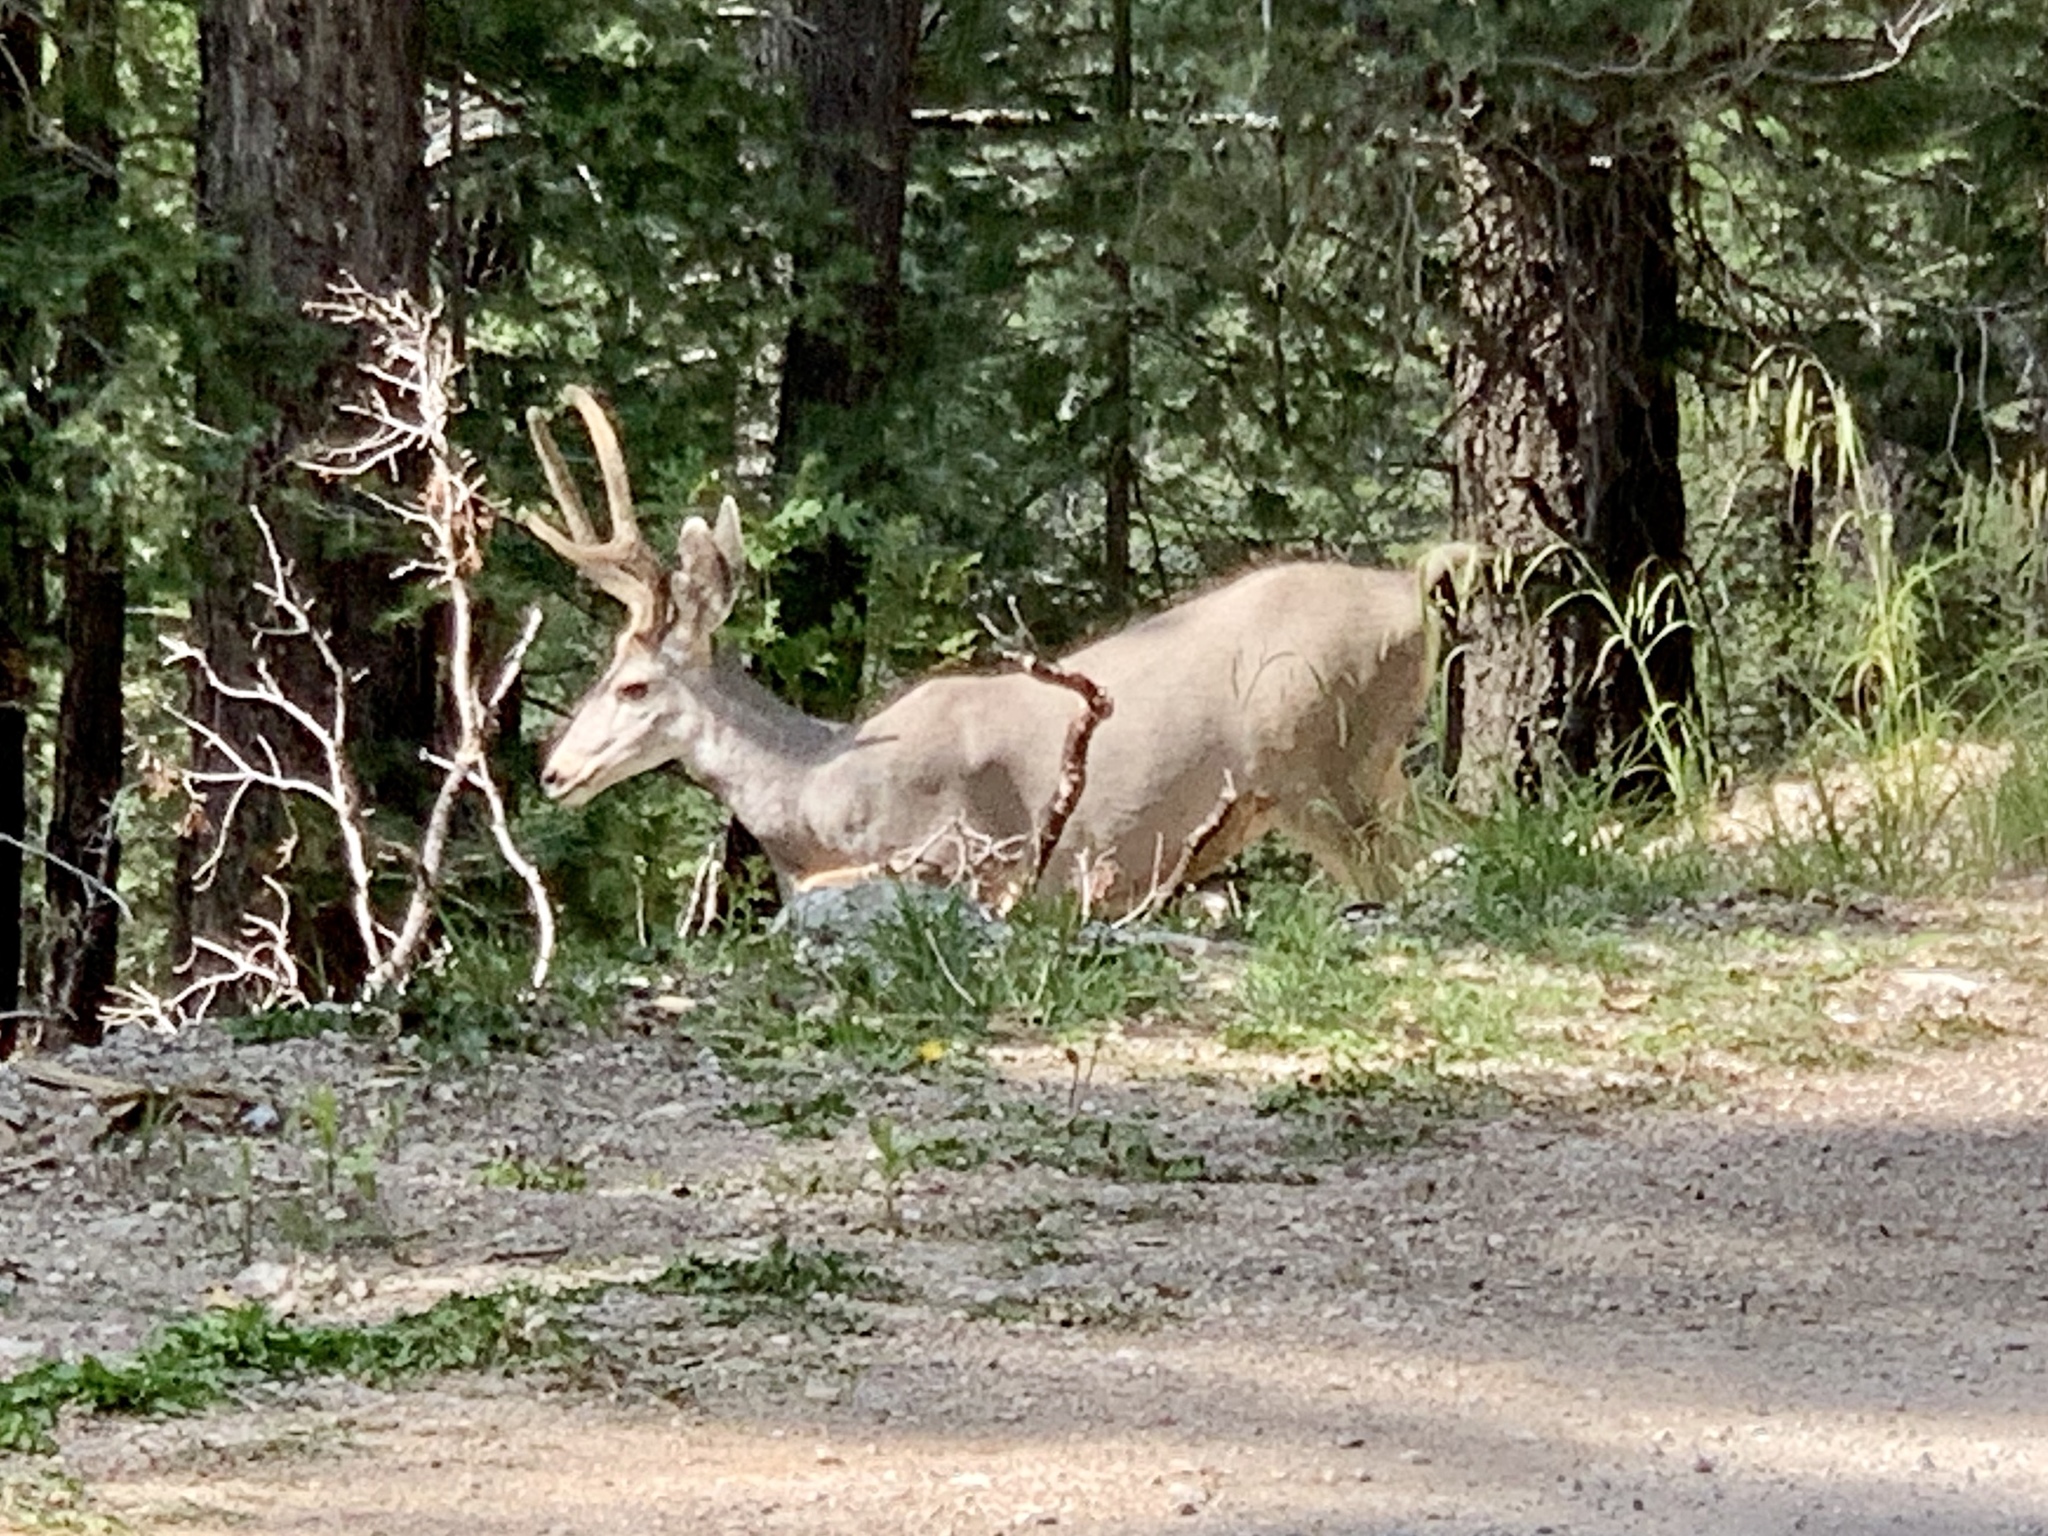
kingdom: Animalia
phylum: Chordata
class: Mammalia
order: Artiodactyla
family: Cervidae
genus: Odocoileus
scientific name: Odocoileus hemionus
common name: Mule deer
